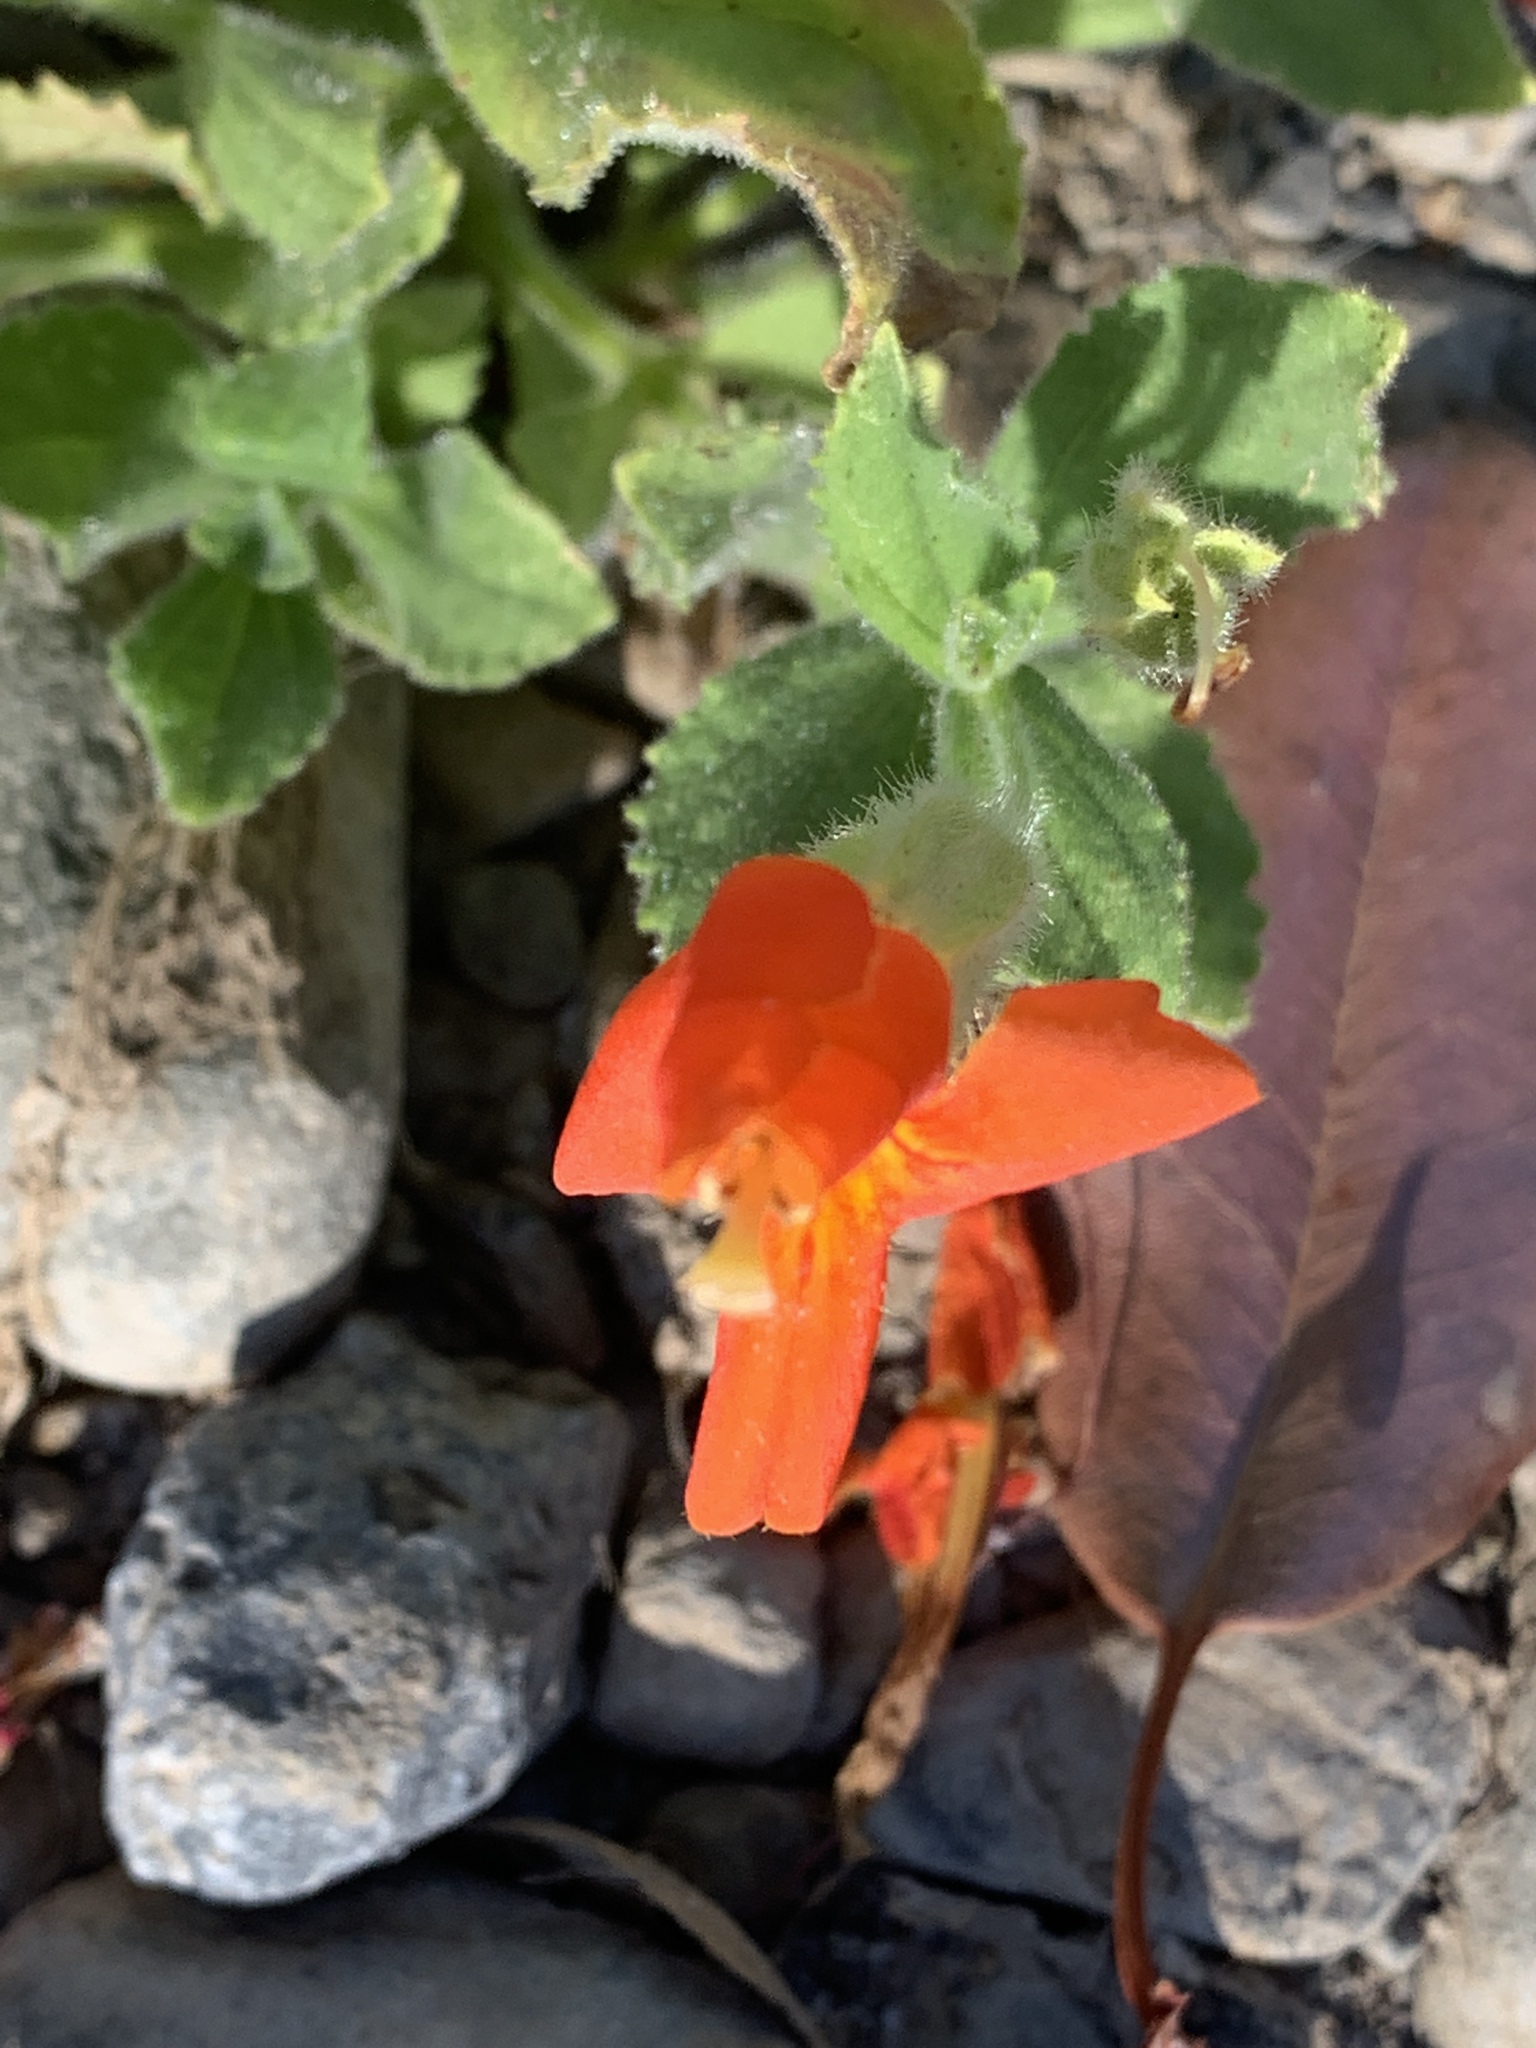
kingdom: Plantae
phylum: Tracheophyta
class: Magnoliopsida
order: Lamiales
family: Phrymaceae
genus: Erythranthe
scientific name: Erythranthe cardinalis
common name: Scarlet monkey-flower
